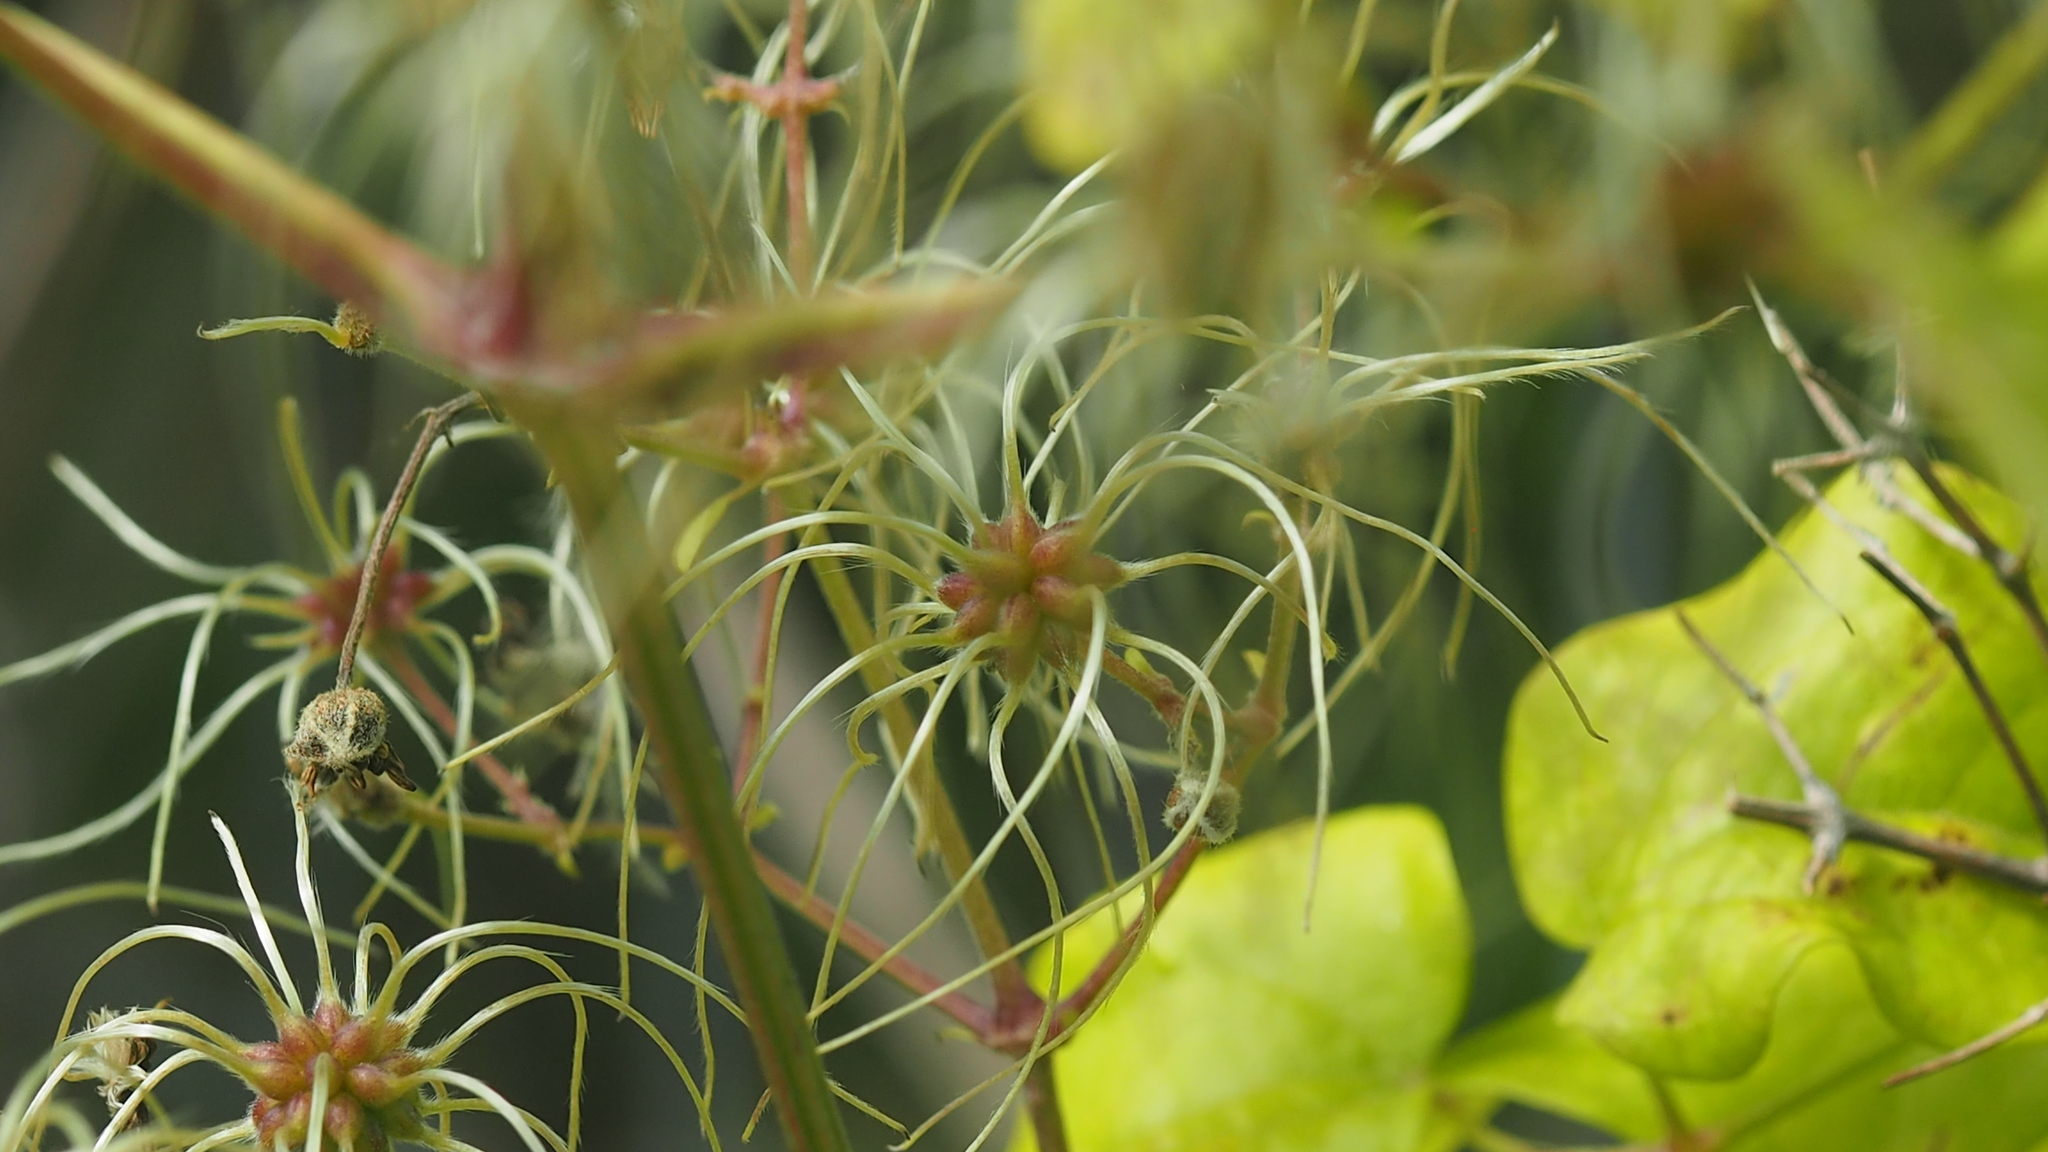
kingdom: Plantae
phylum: Tracheophyta
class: Magnoliopsida
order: Ranunculales
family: Ranunculaceae
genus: Clematis
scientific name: Clematis vitalba
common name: Evergreen clematis
